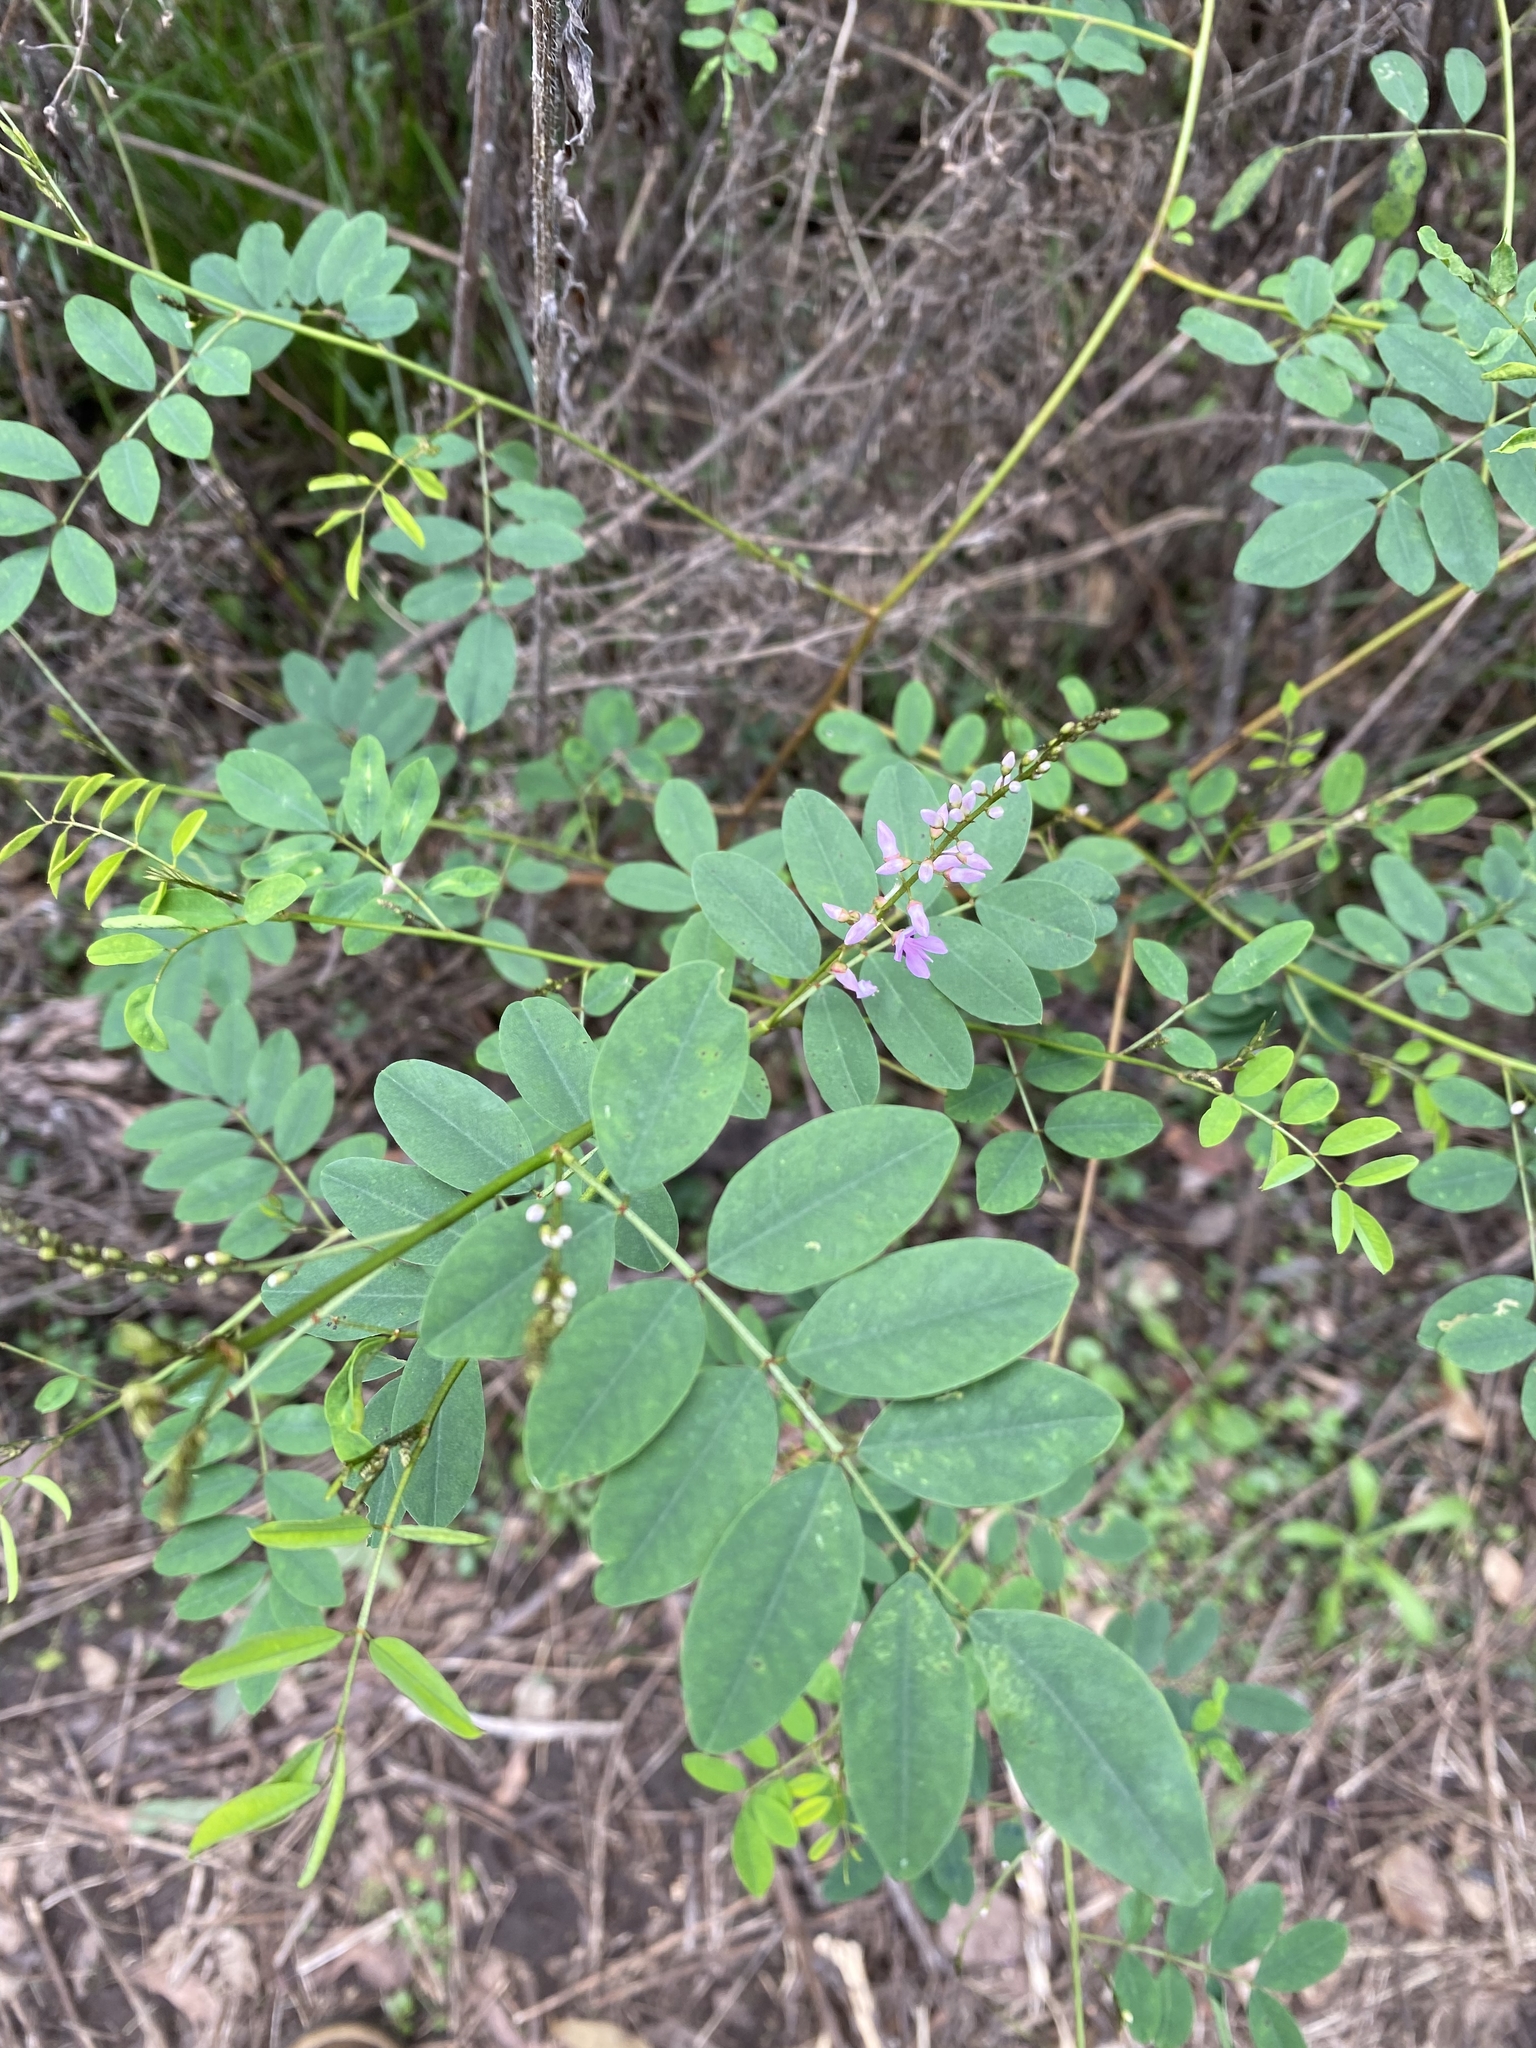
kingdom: Plantae
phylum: Tracheophyta
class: Magnoliopsida
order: Fabales
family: Fabaceae
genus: Indigofera
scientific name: Indigofera australis
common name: Australian indigo
